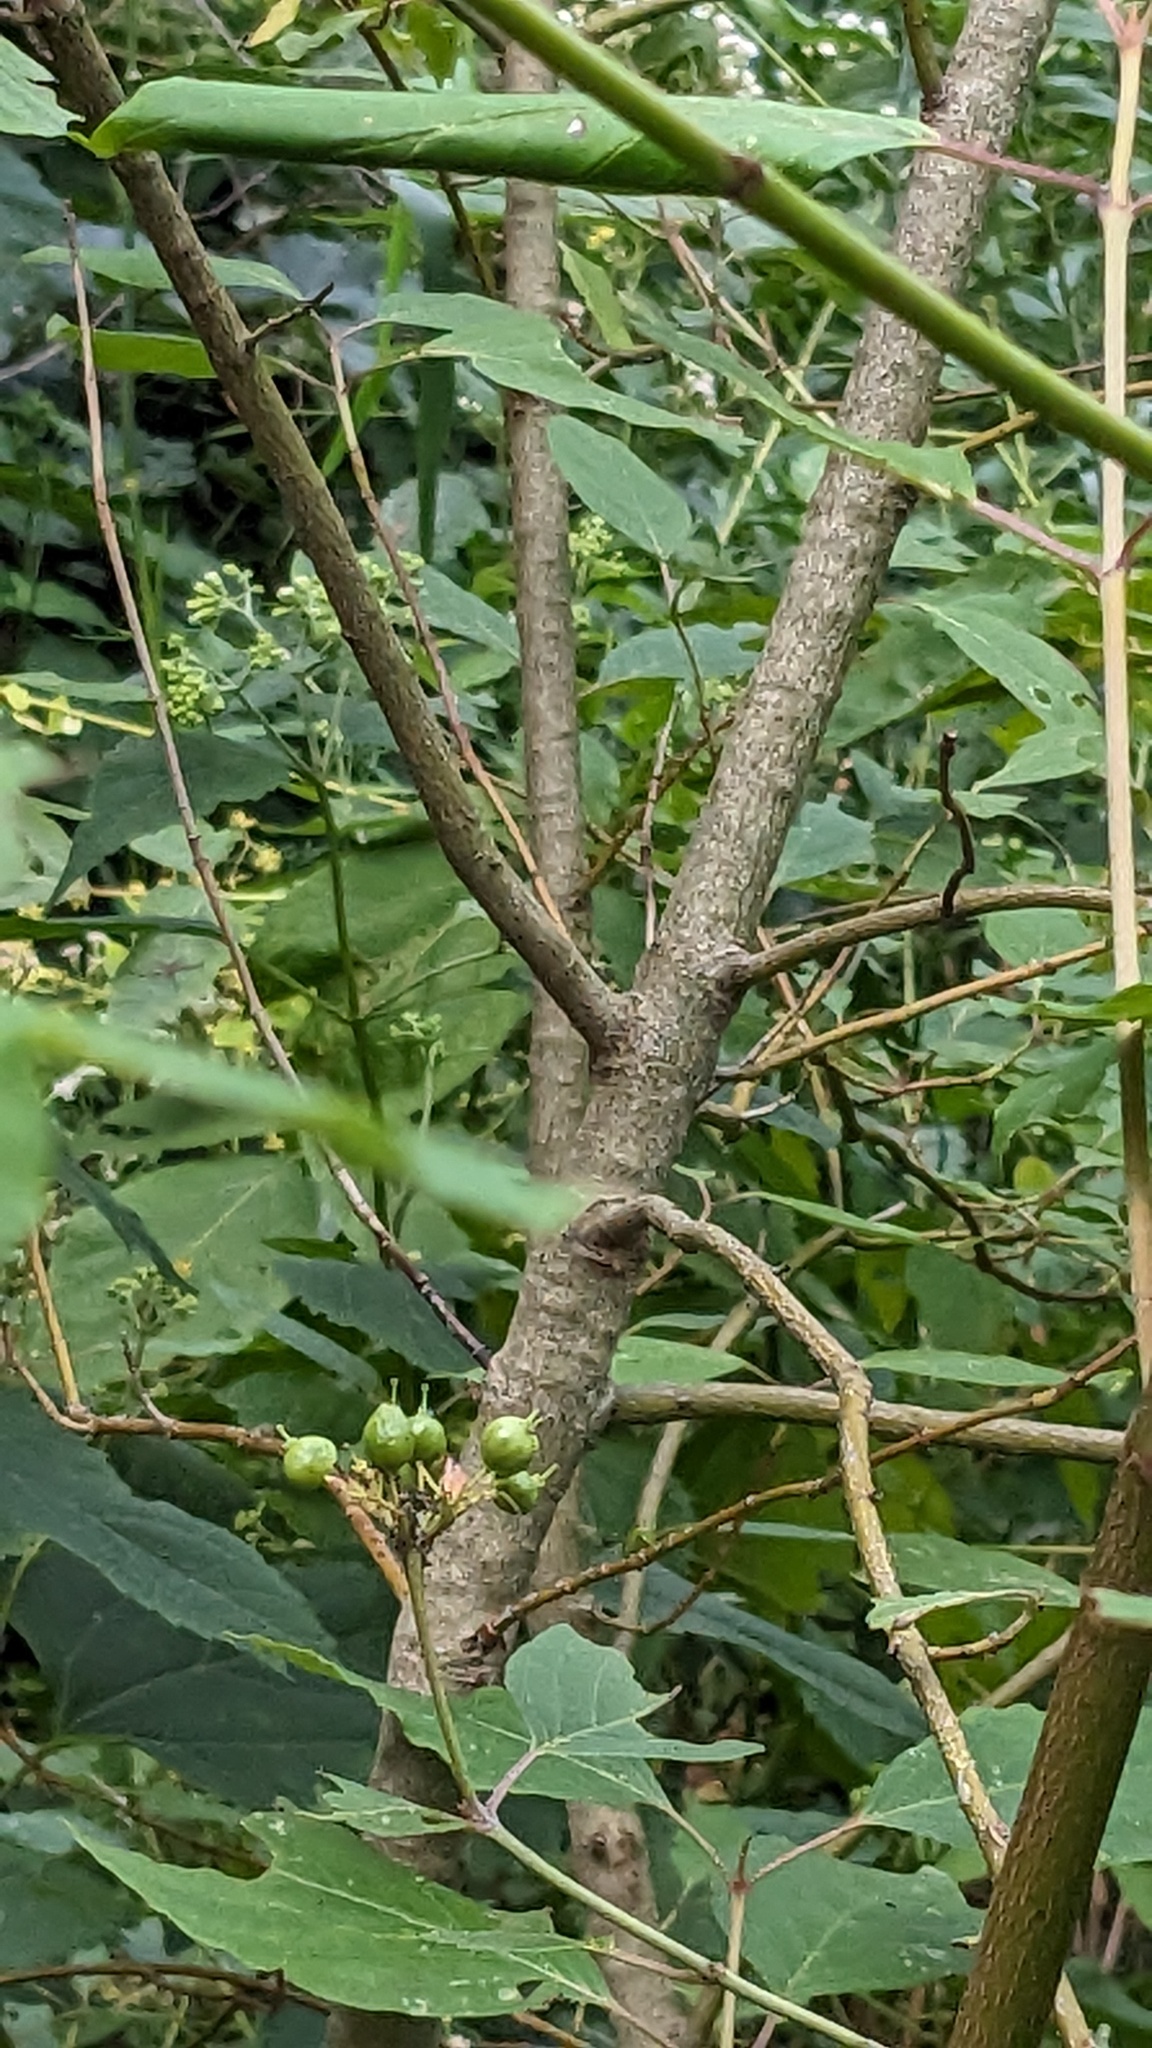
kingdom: Plantae
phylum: Tracheophyta
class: Magnoliopsida
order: Cornales
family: Cornaceae
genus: Cornus
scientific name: Cornus amomum
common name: Silky dogwood
